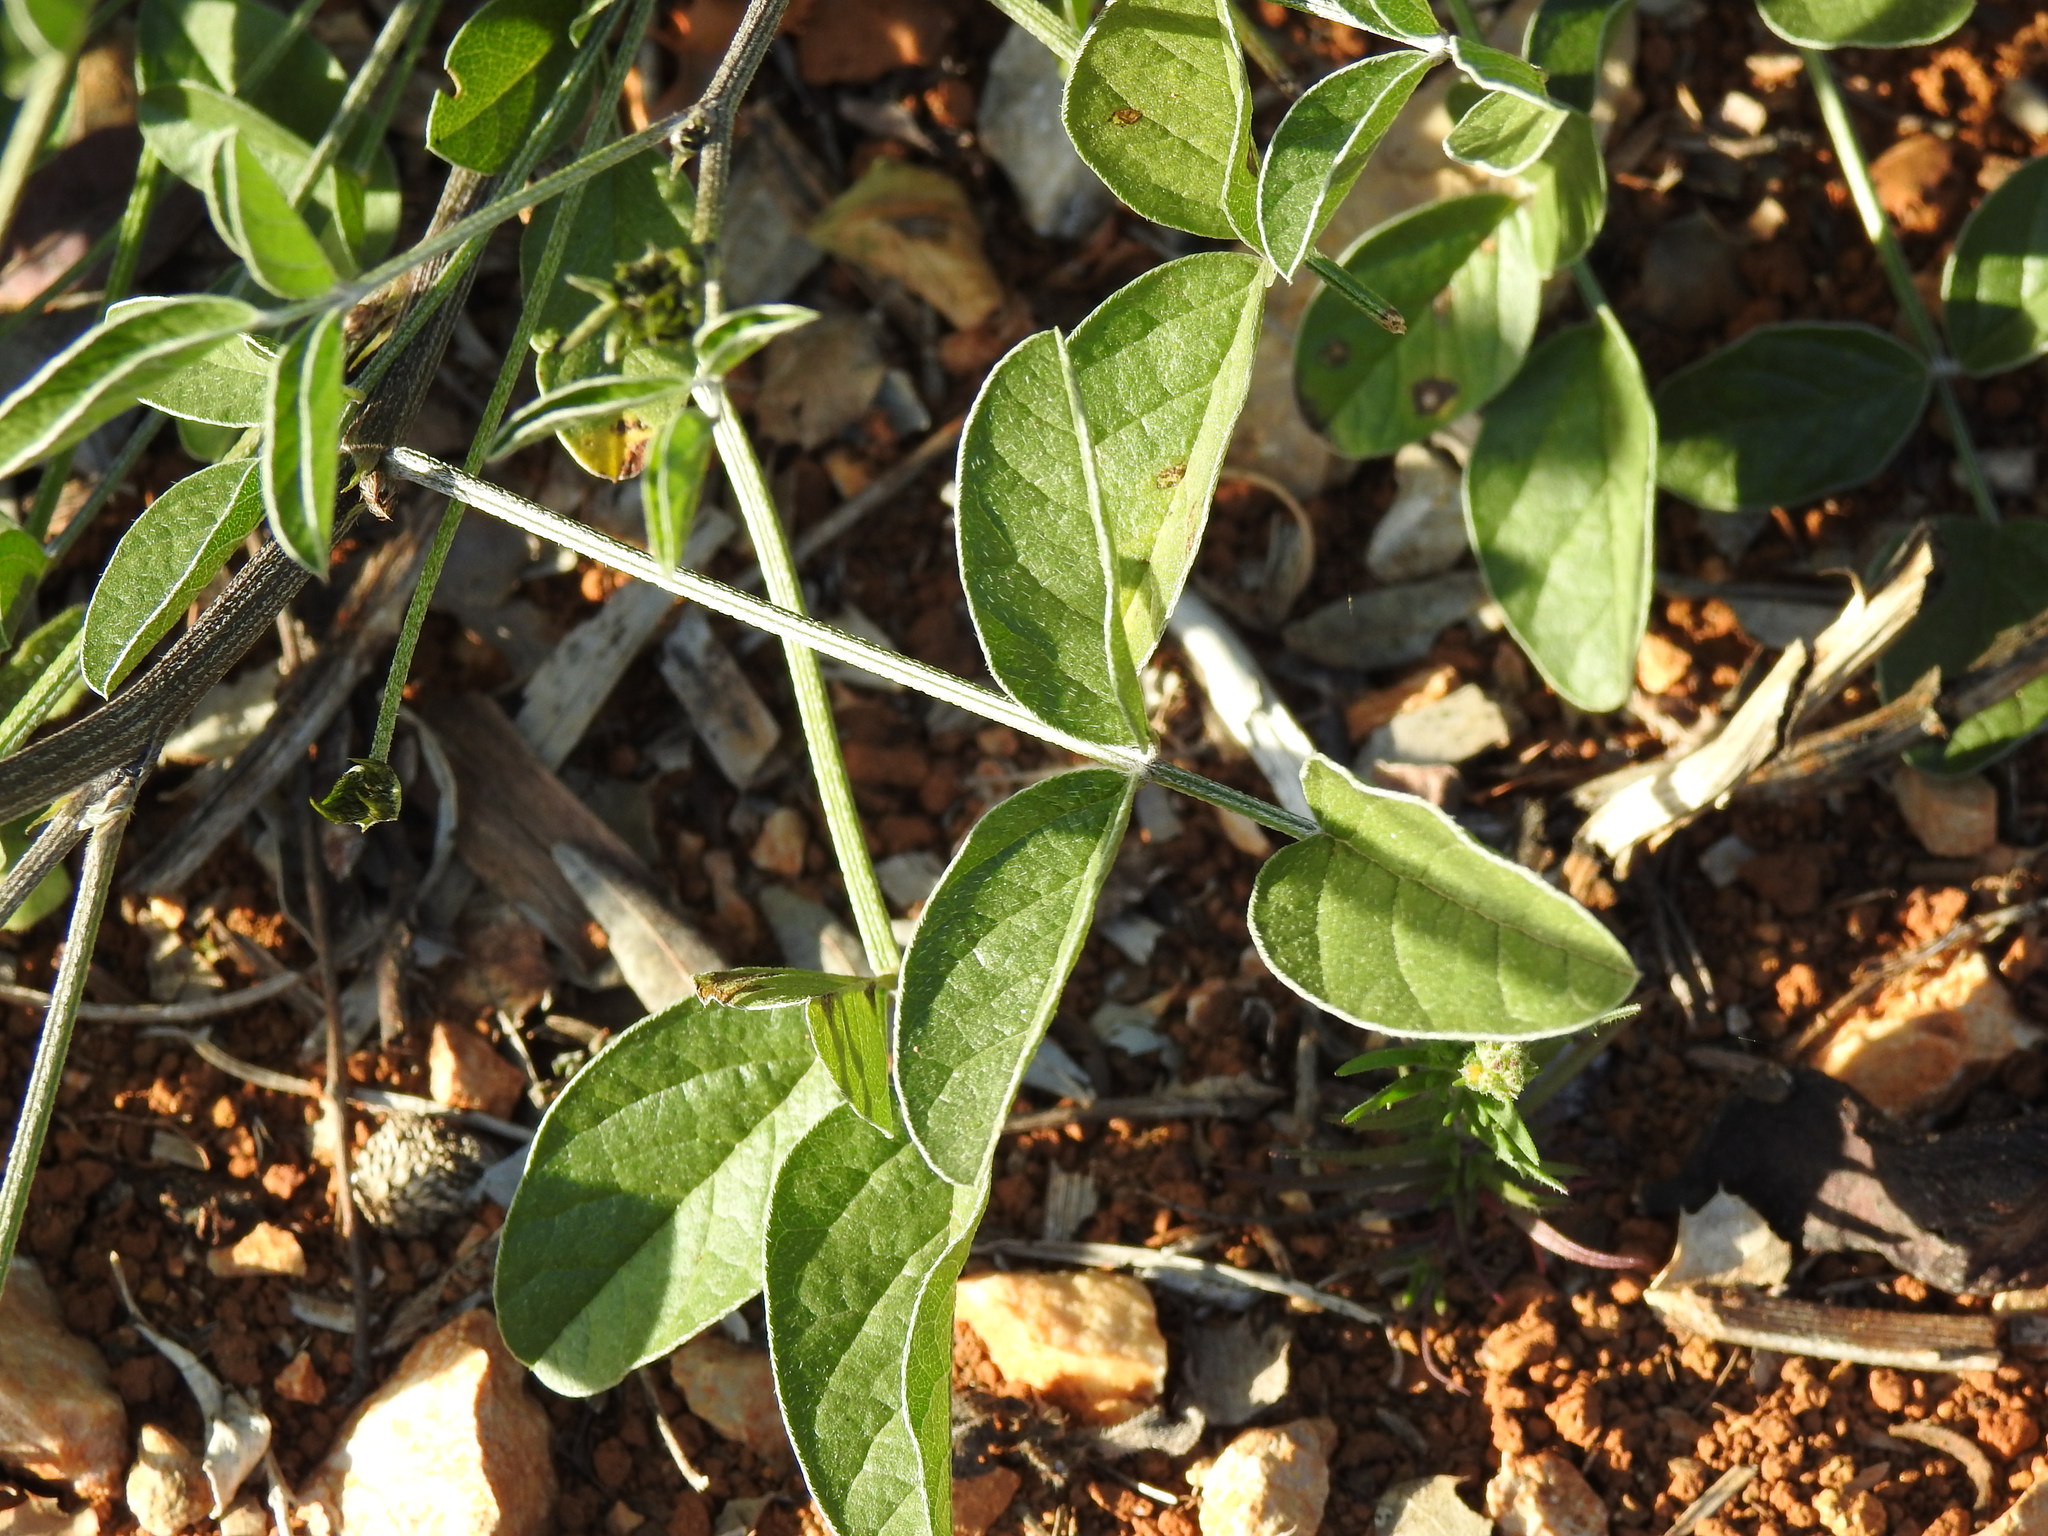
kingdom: Plantae
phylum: Tracheophyta
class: Magnoliopsida
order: Fabales
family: Fabaceae
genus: Bituminaria
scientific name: Bituminaria bituminosa
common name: Arabian pea
